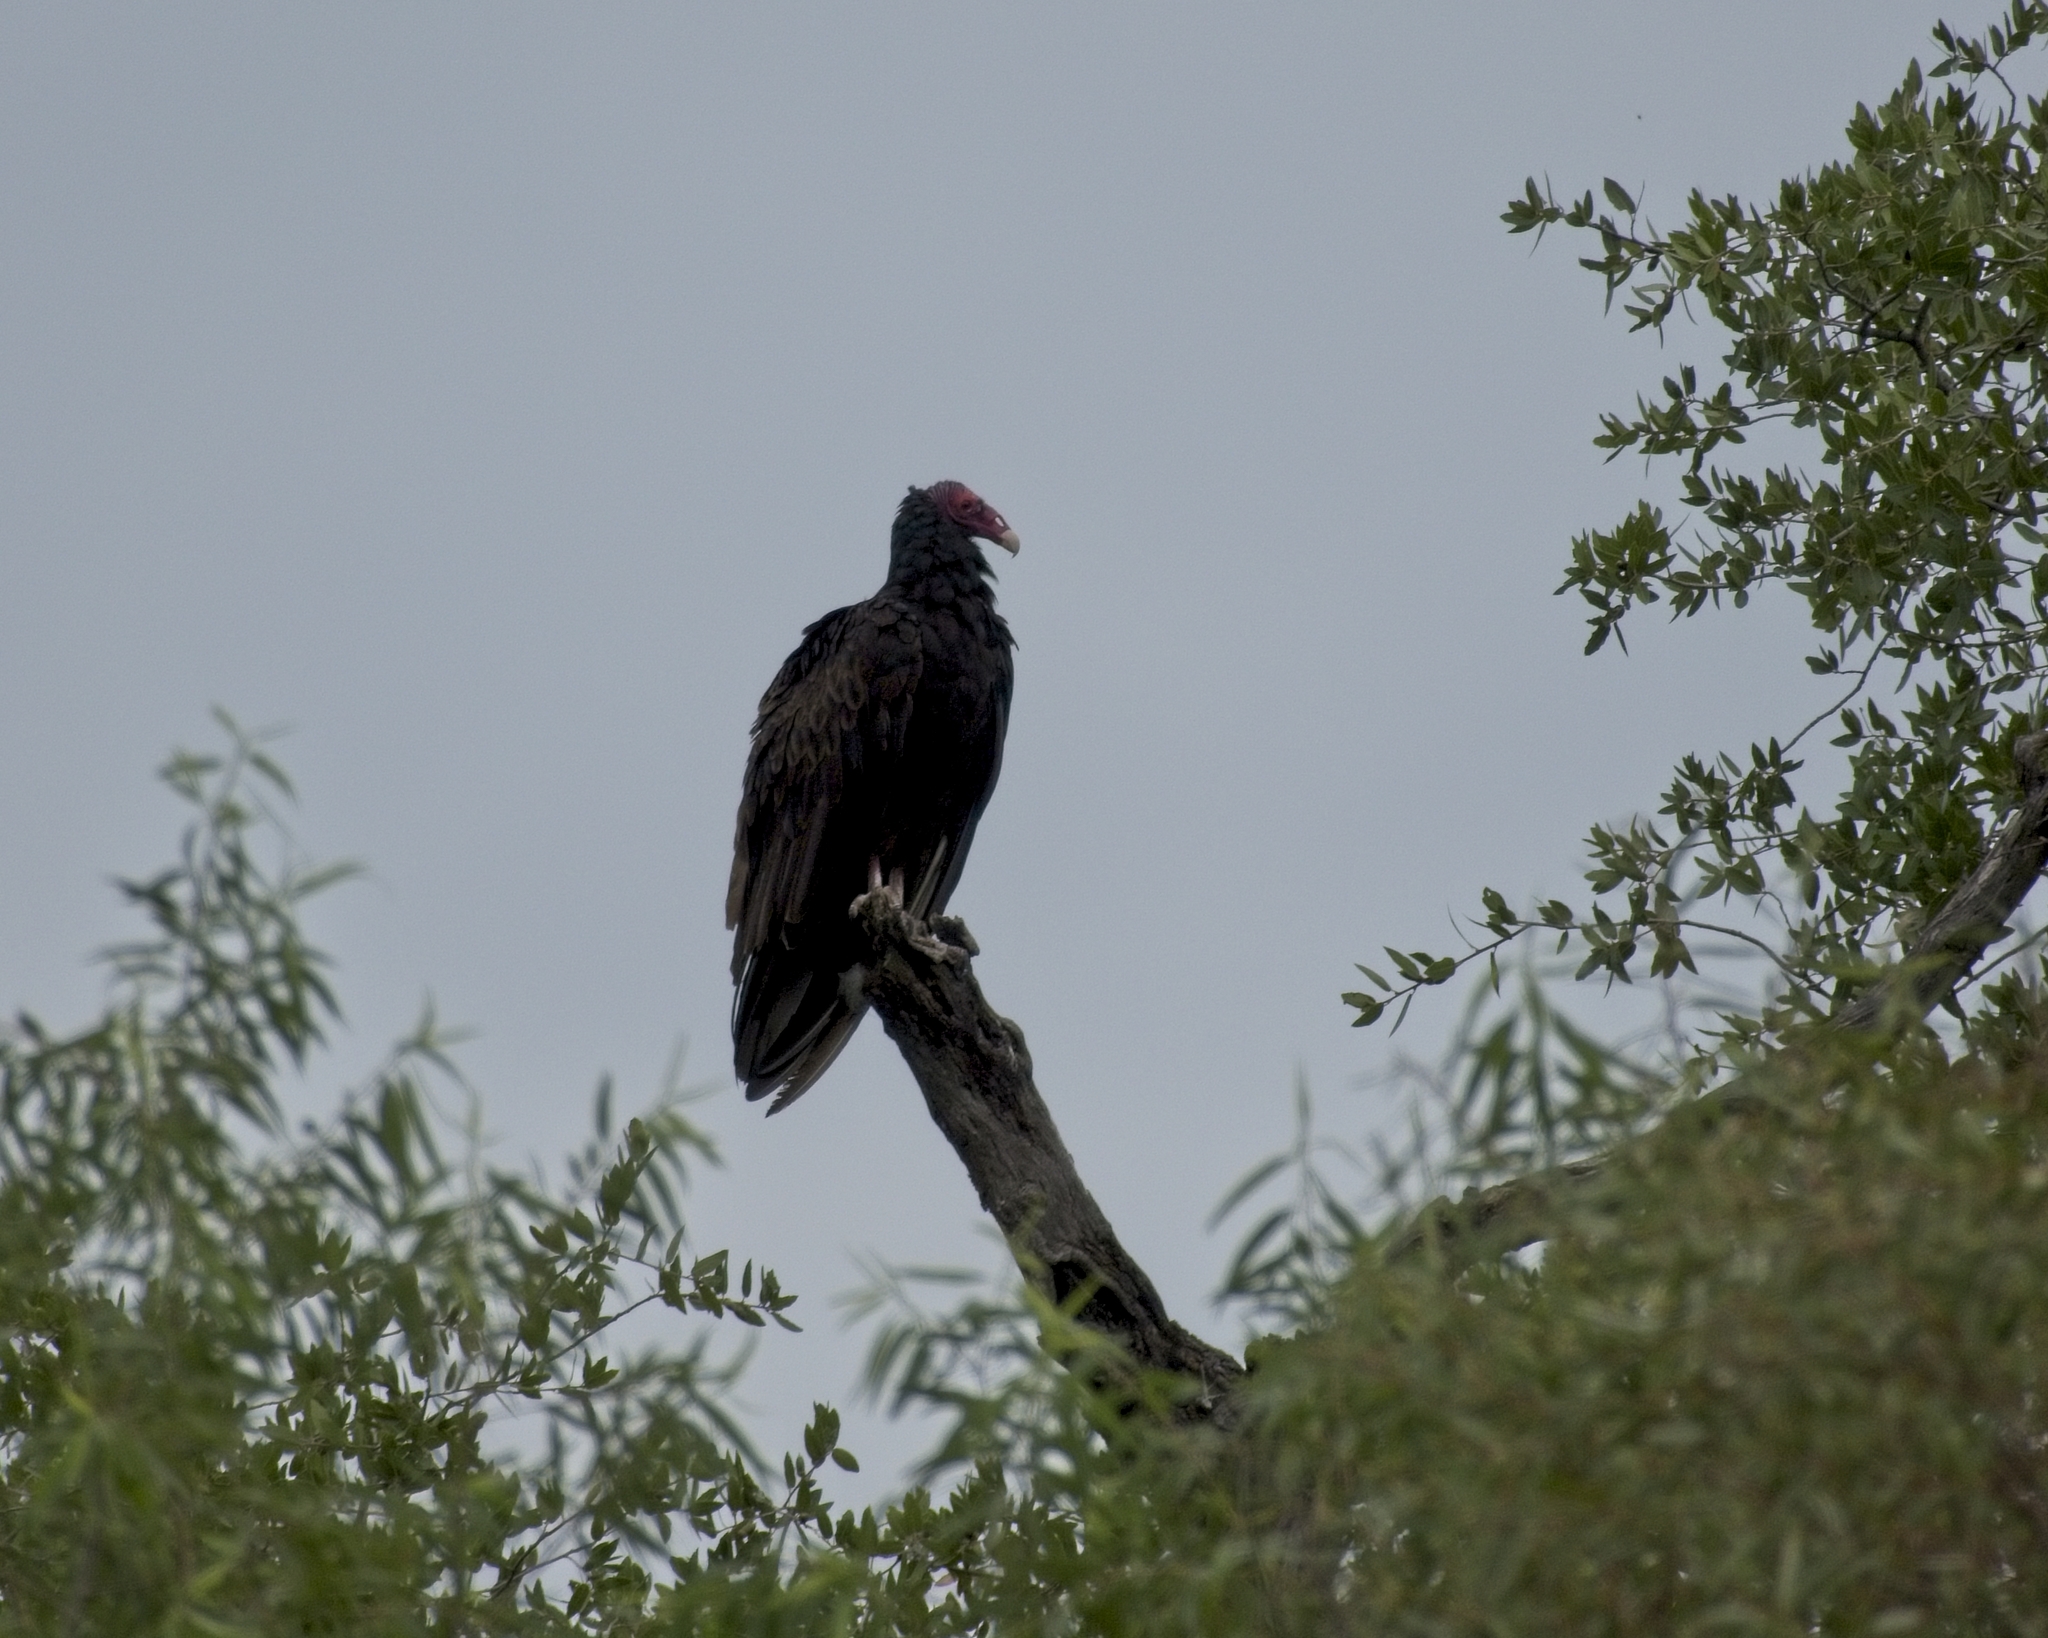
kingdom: Animalia
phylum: Chordata
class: Aves
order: Accipitriformes
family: Cathartidae
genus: Cathartes
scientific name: Cathartes aura
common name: Turkey vulture
